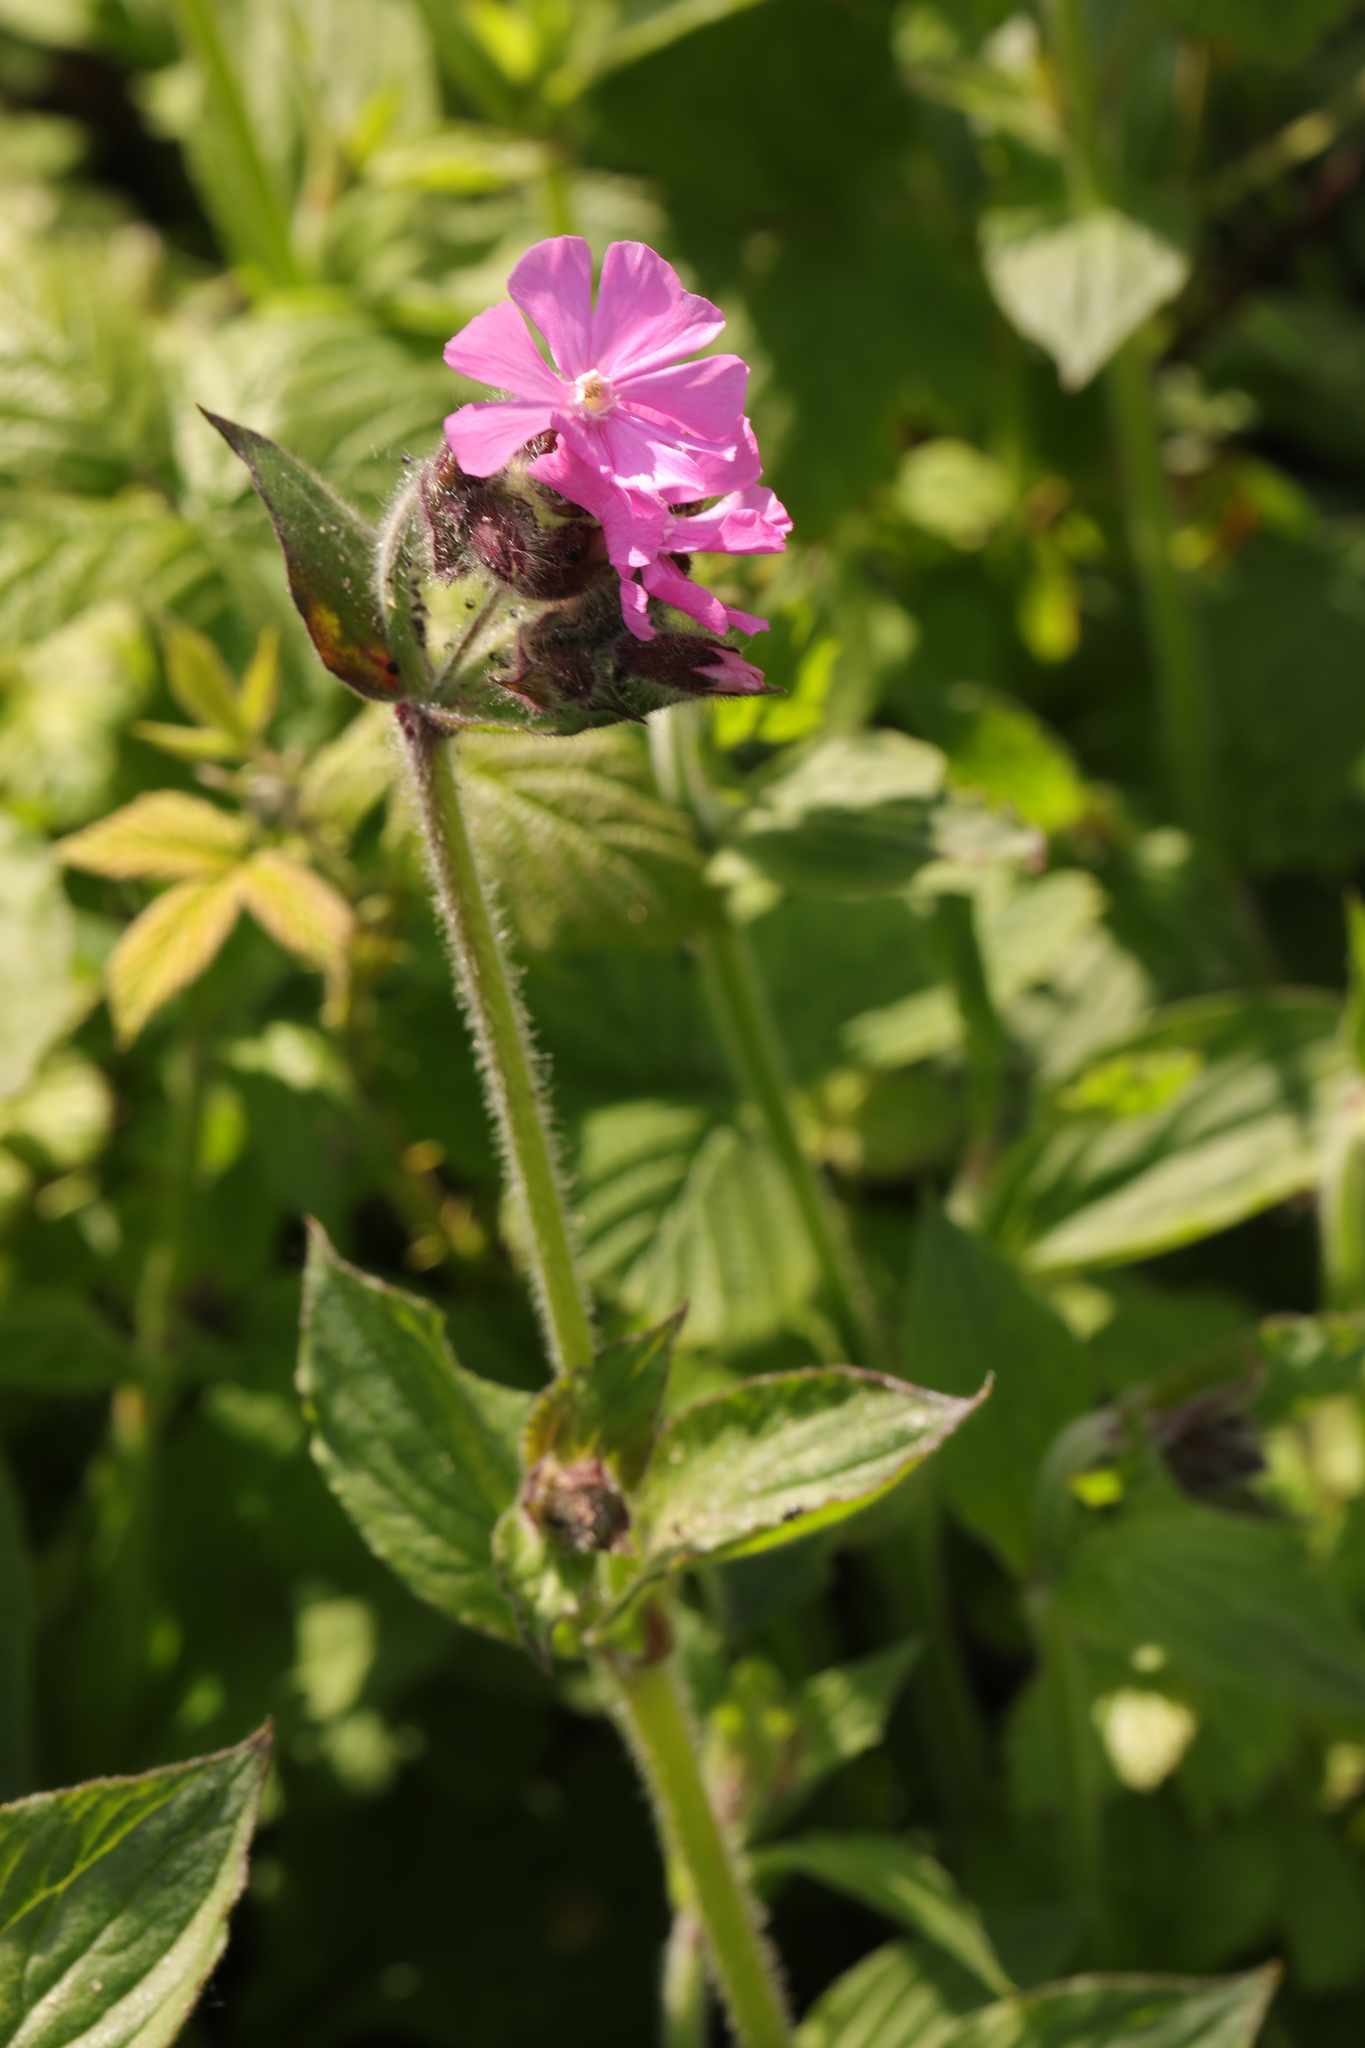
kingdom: Plantae
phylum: Tracheophyta
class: Magnoliopsida
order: Caryophyllales
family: Caryophyllaceae
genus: Silene
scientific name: Silene dioica
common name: Red campion
